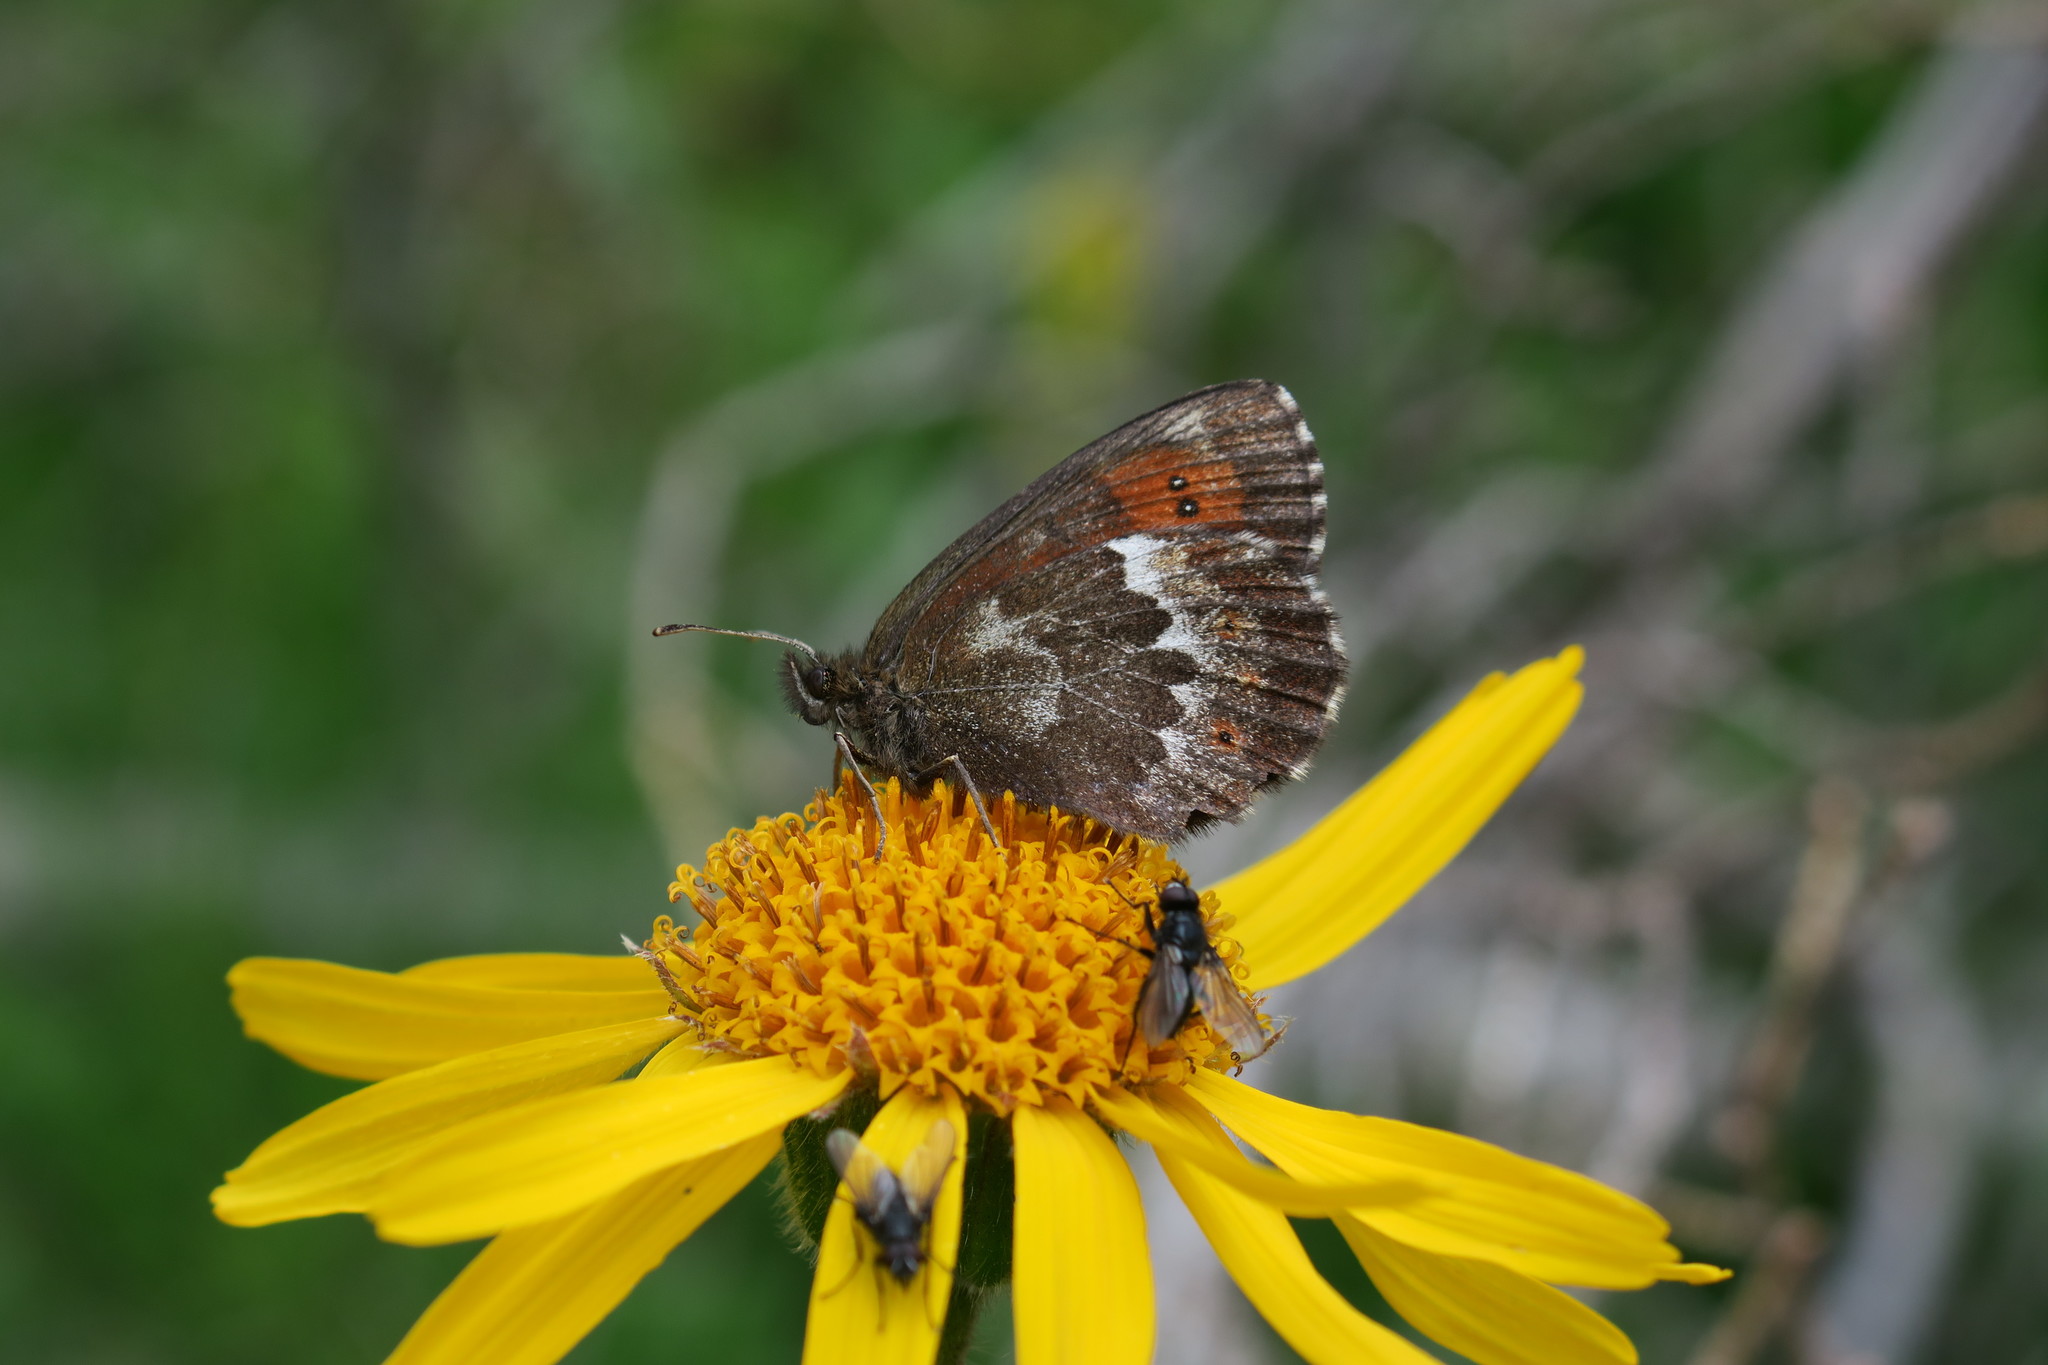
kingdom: Animalia
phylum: Arthropoda
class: Insecta
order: Lepidoptera
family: Nymphalidae
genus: Erebia
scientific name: Erebia euryale
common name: Large ringlet
